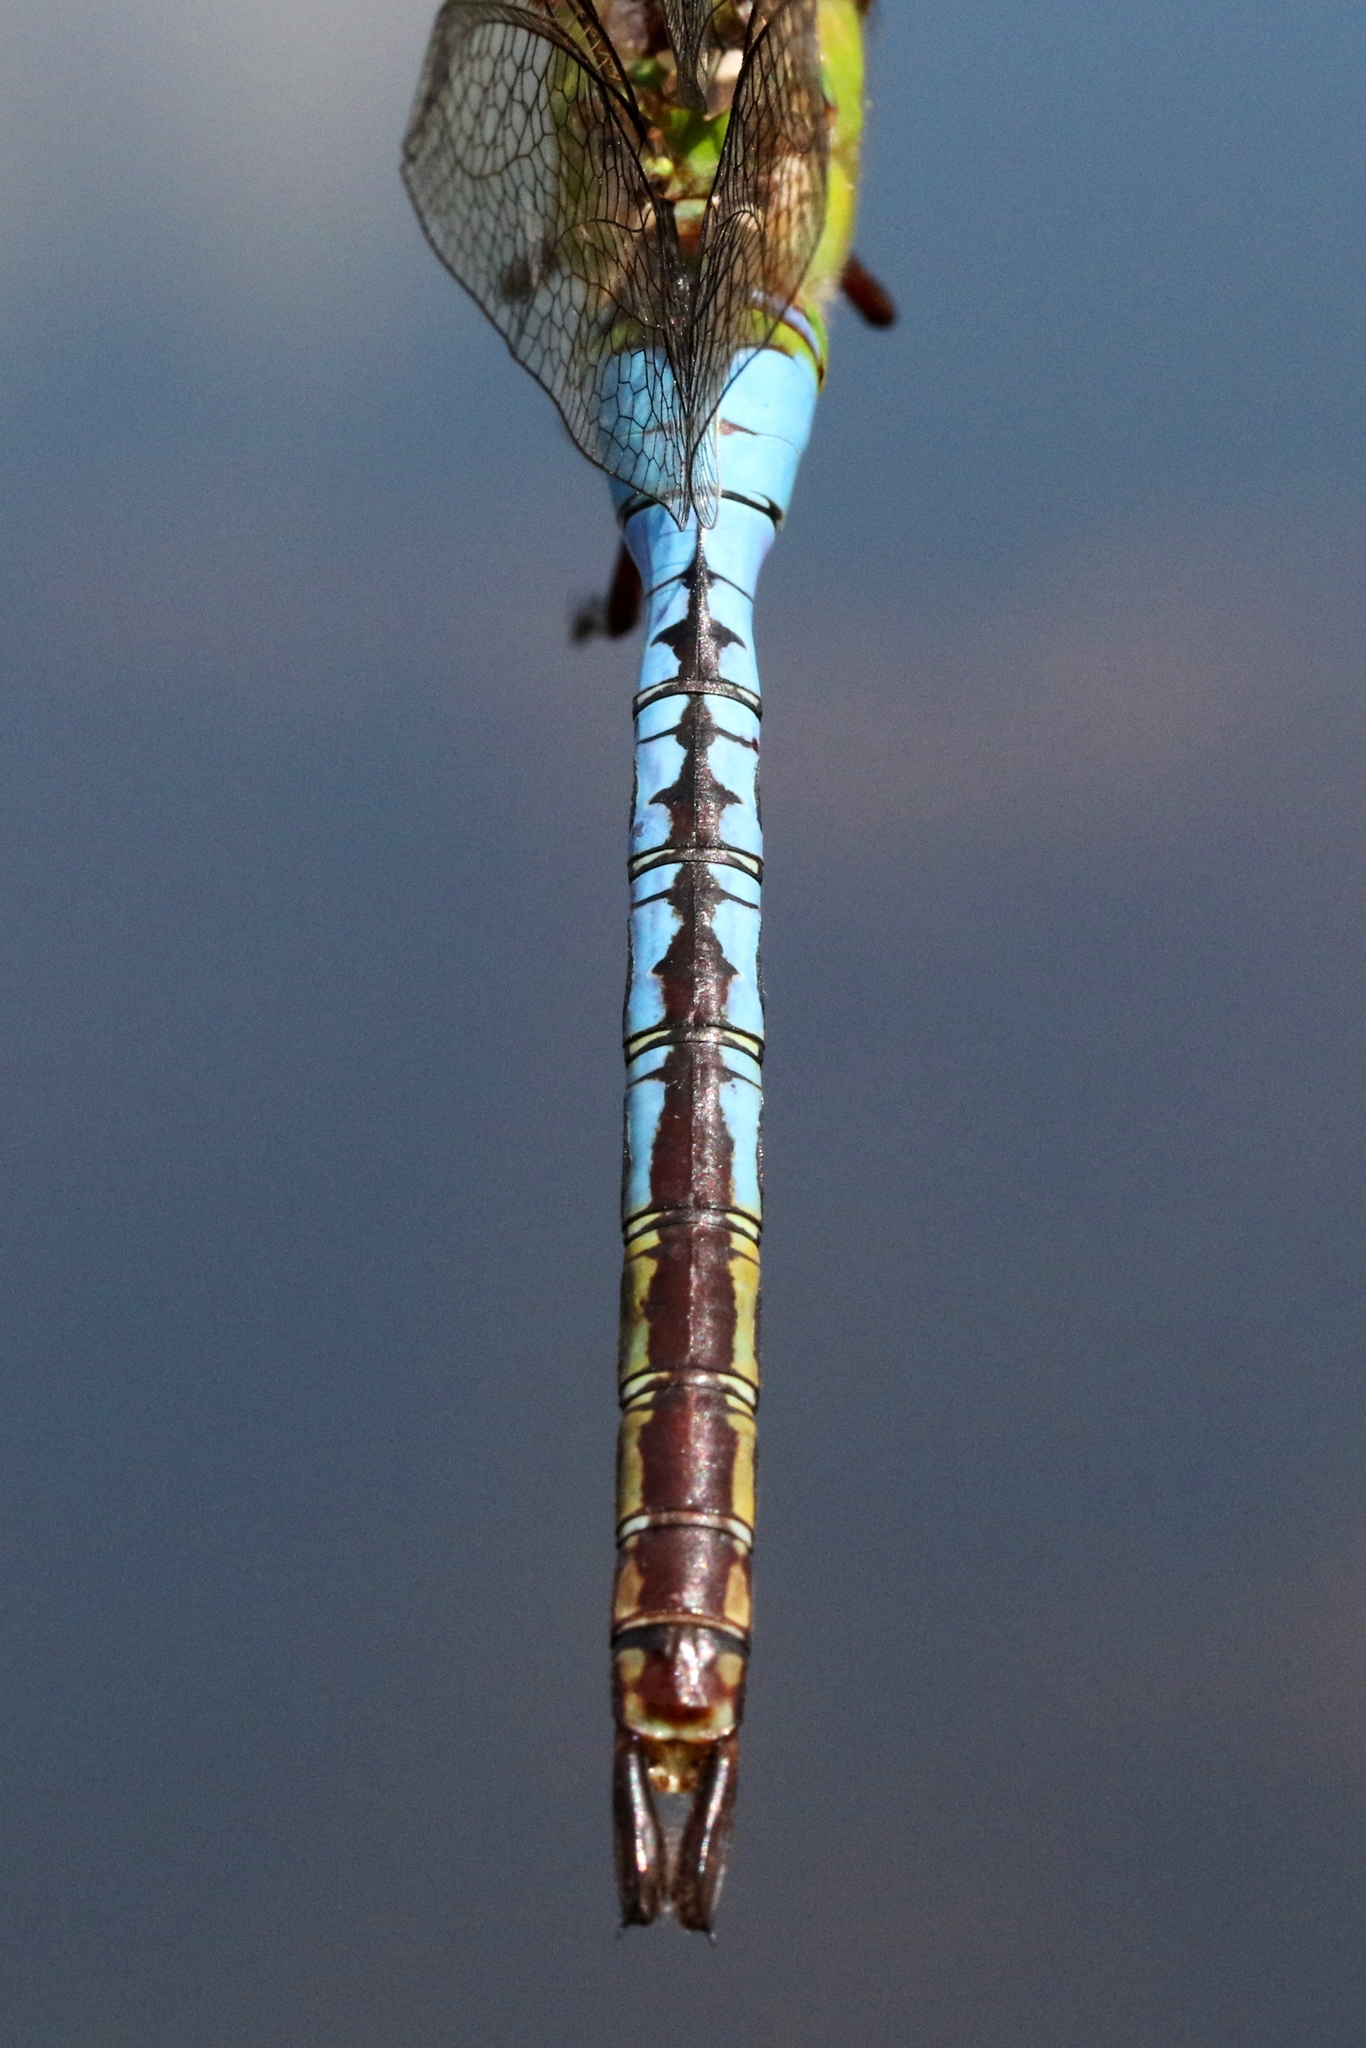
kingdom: Animalia
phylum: Arthropoda
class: Insecta
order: Odonata
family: Aeshnidae
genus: Anax
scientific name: Anax junius
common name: Common green darner
